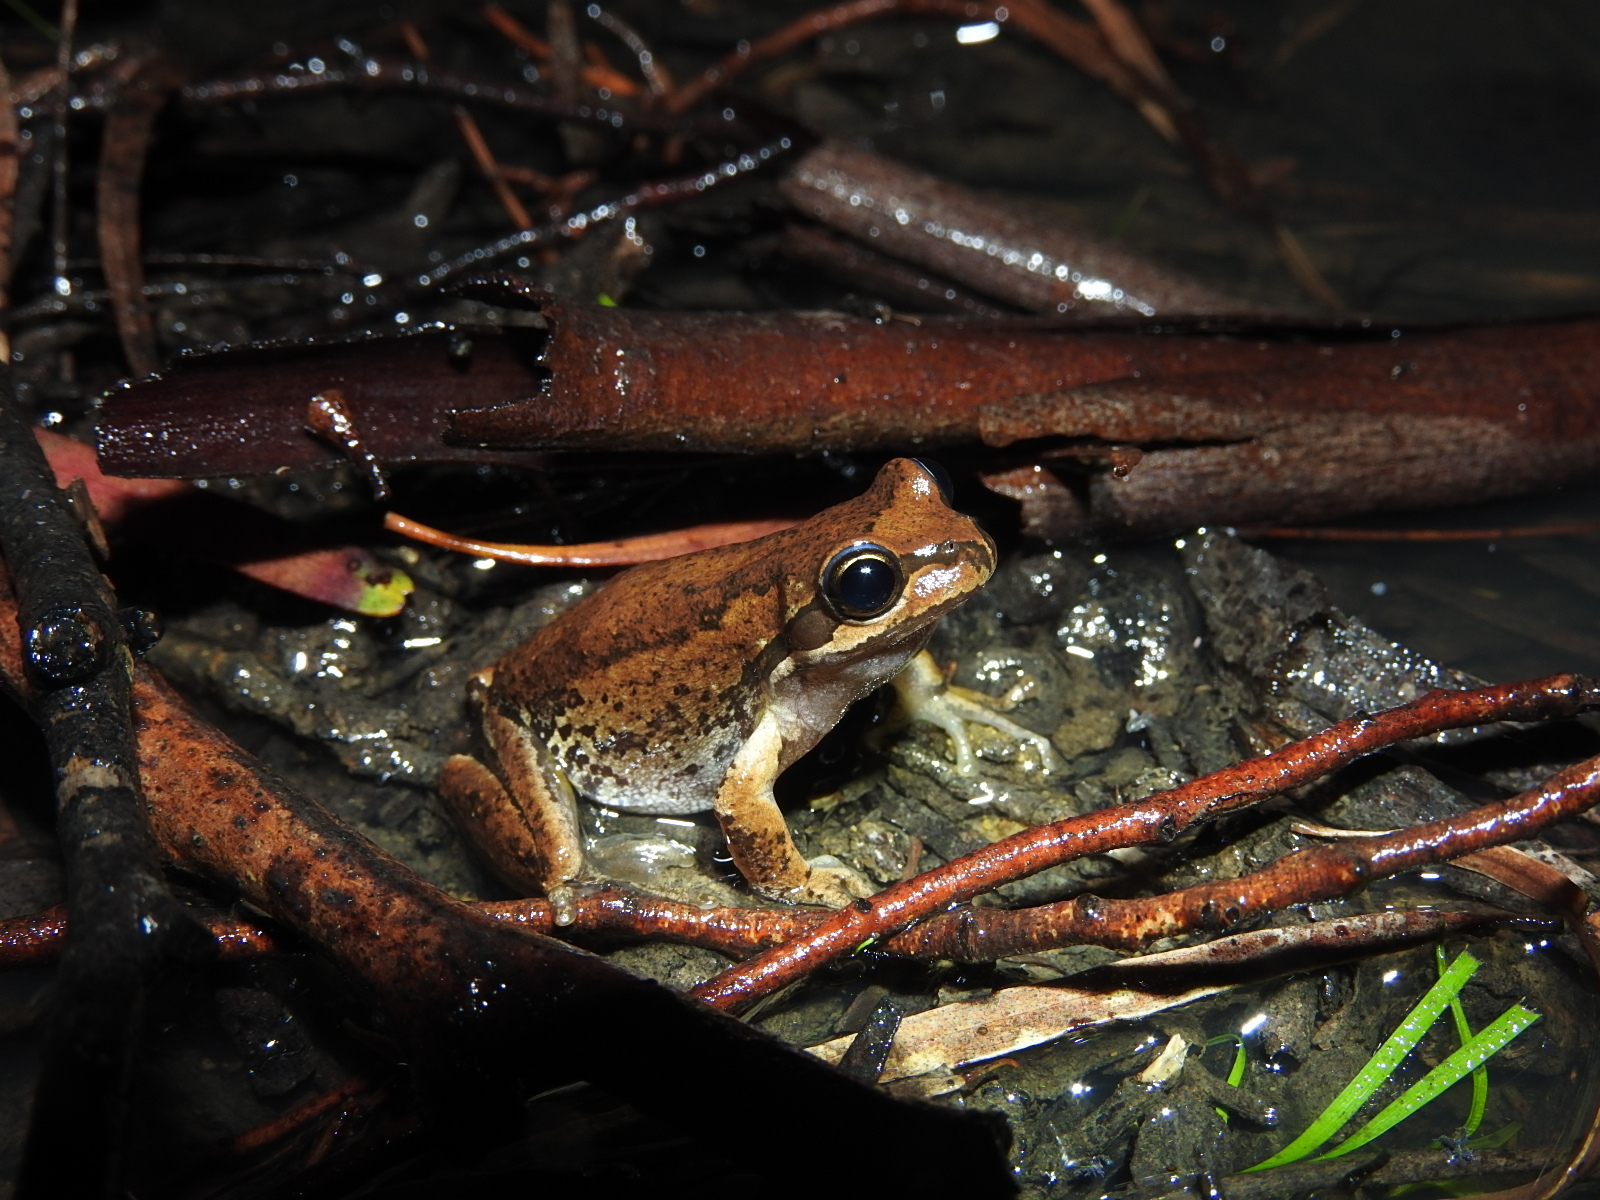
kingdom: Animalia
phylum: Chordata
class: Amphibia
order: Anura
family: Pelodryadidae
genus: Litoria
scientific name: Litoria ewingii
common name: Southern brown tree frog
